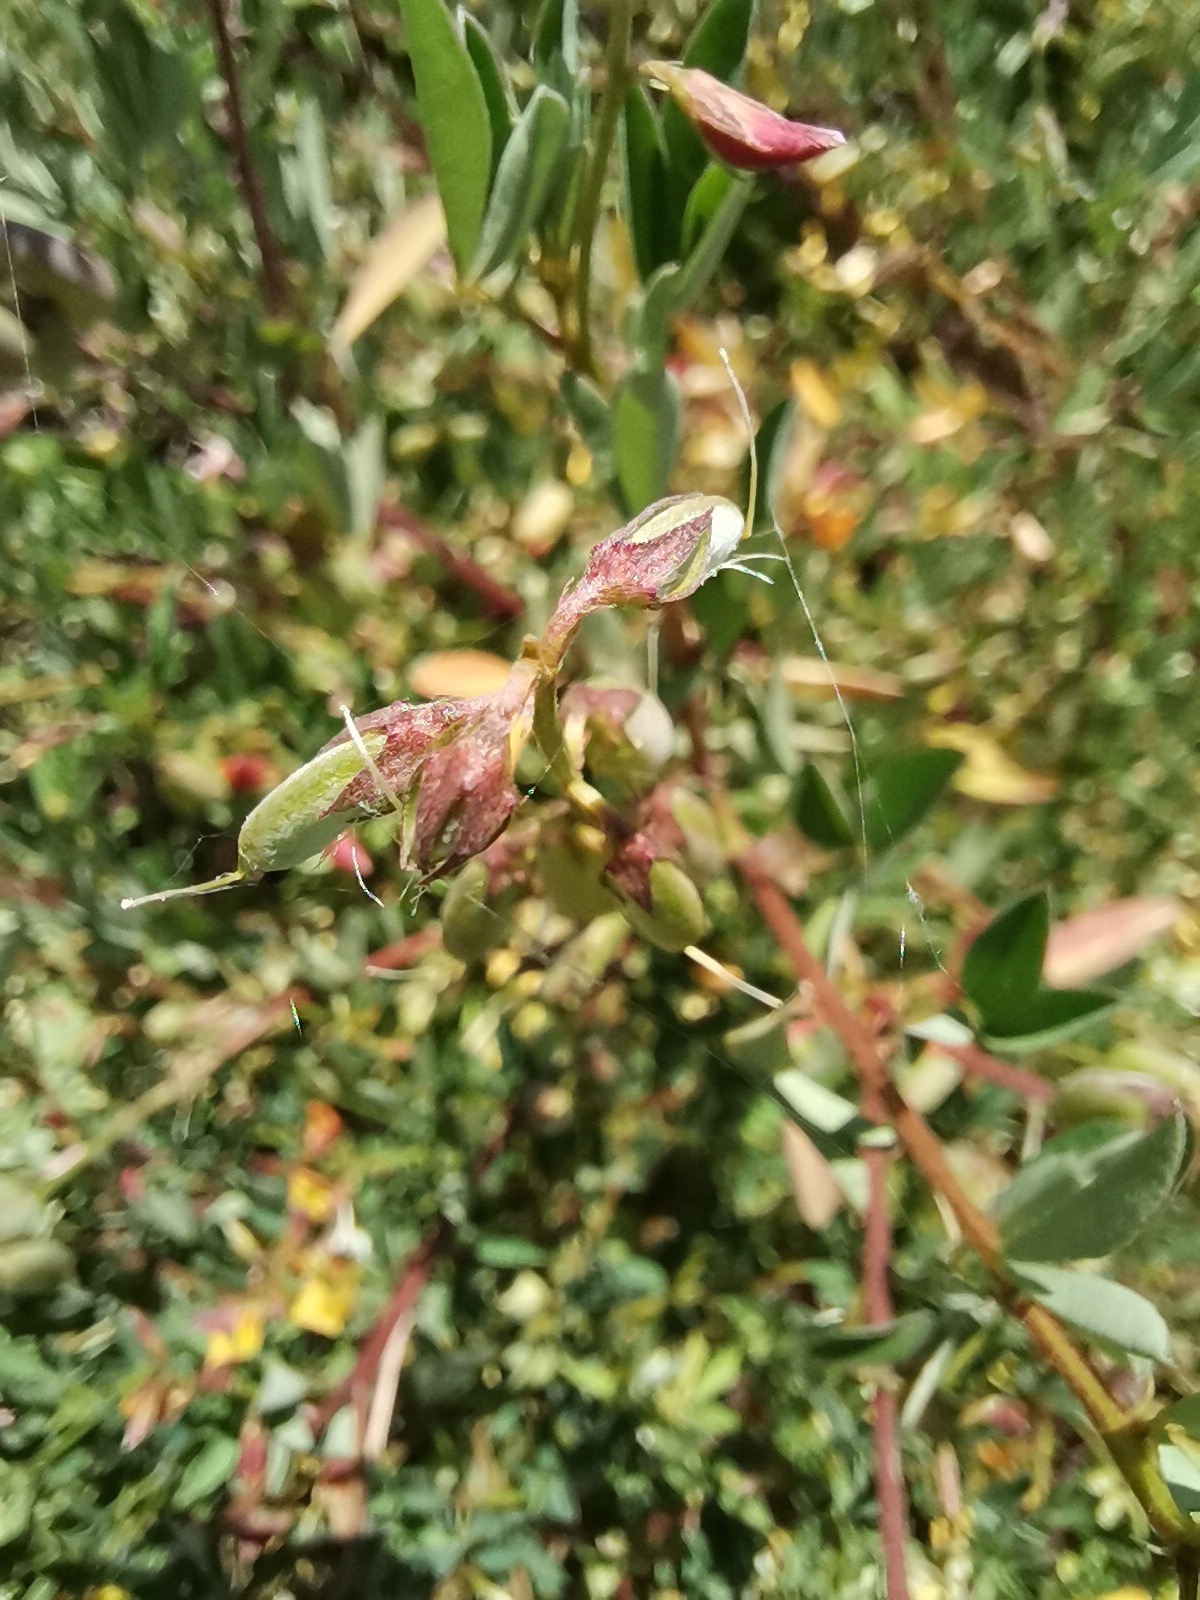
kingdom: Plantae
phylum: Tracheophyta
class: Magnoliopsida
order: Fabales
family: Fabaceae
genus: Crotalaria
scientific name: Crotalaria pumila
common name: Low rattlebox
